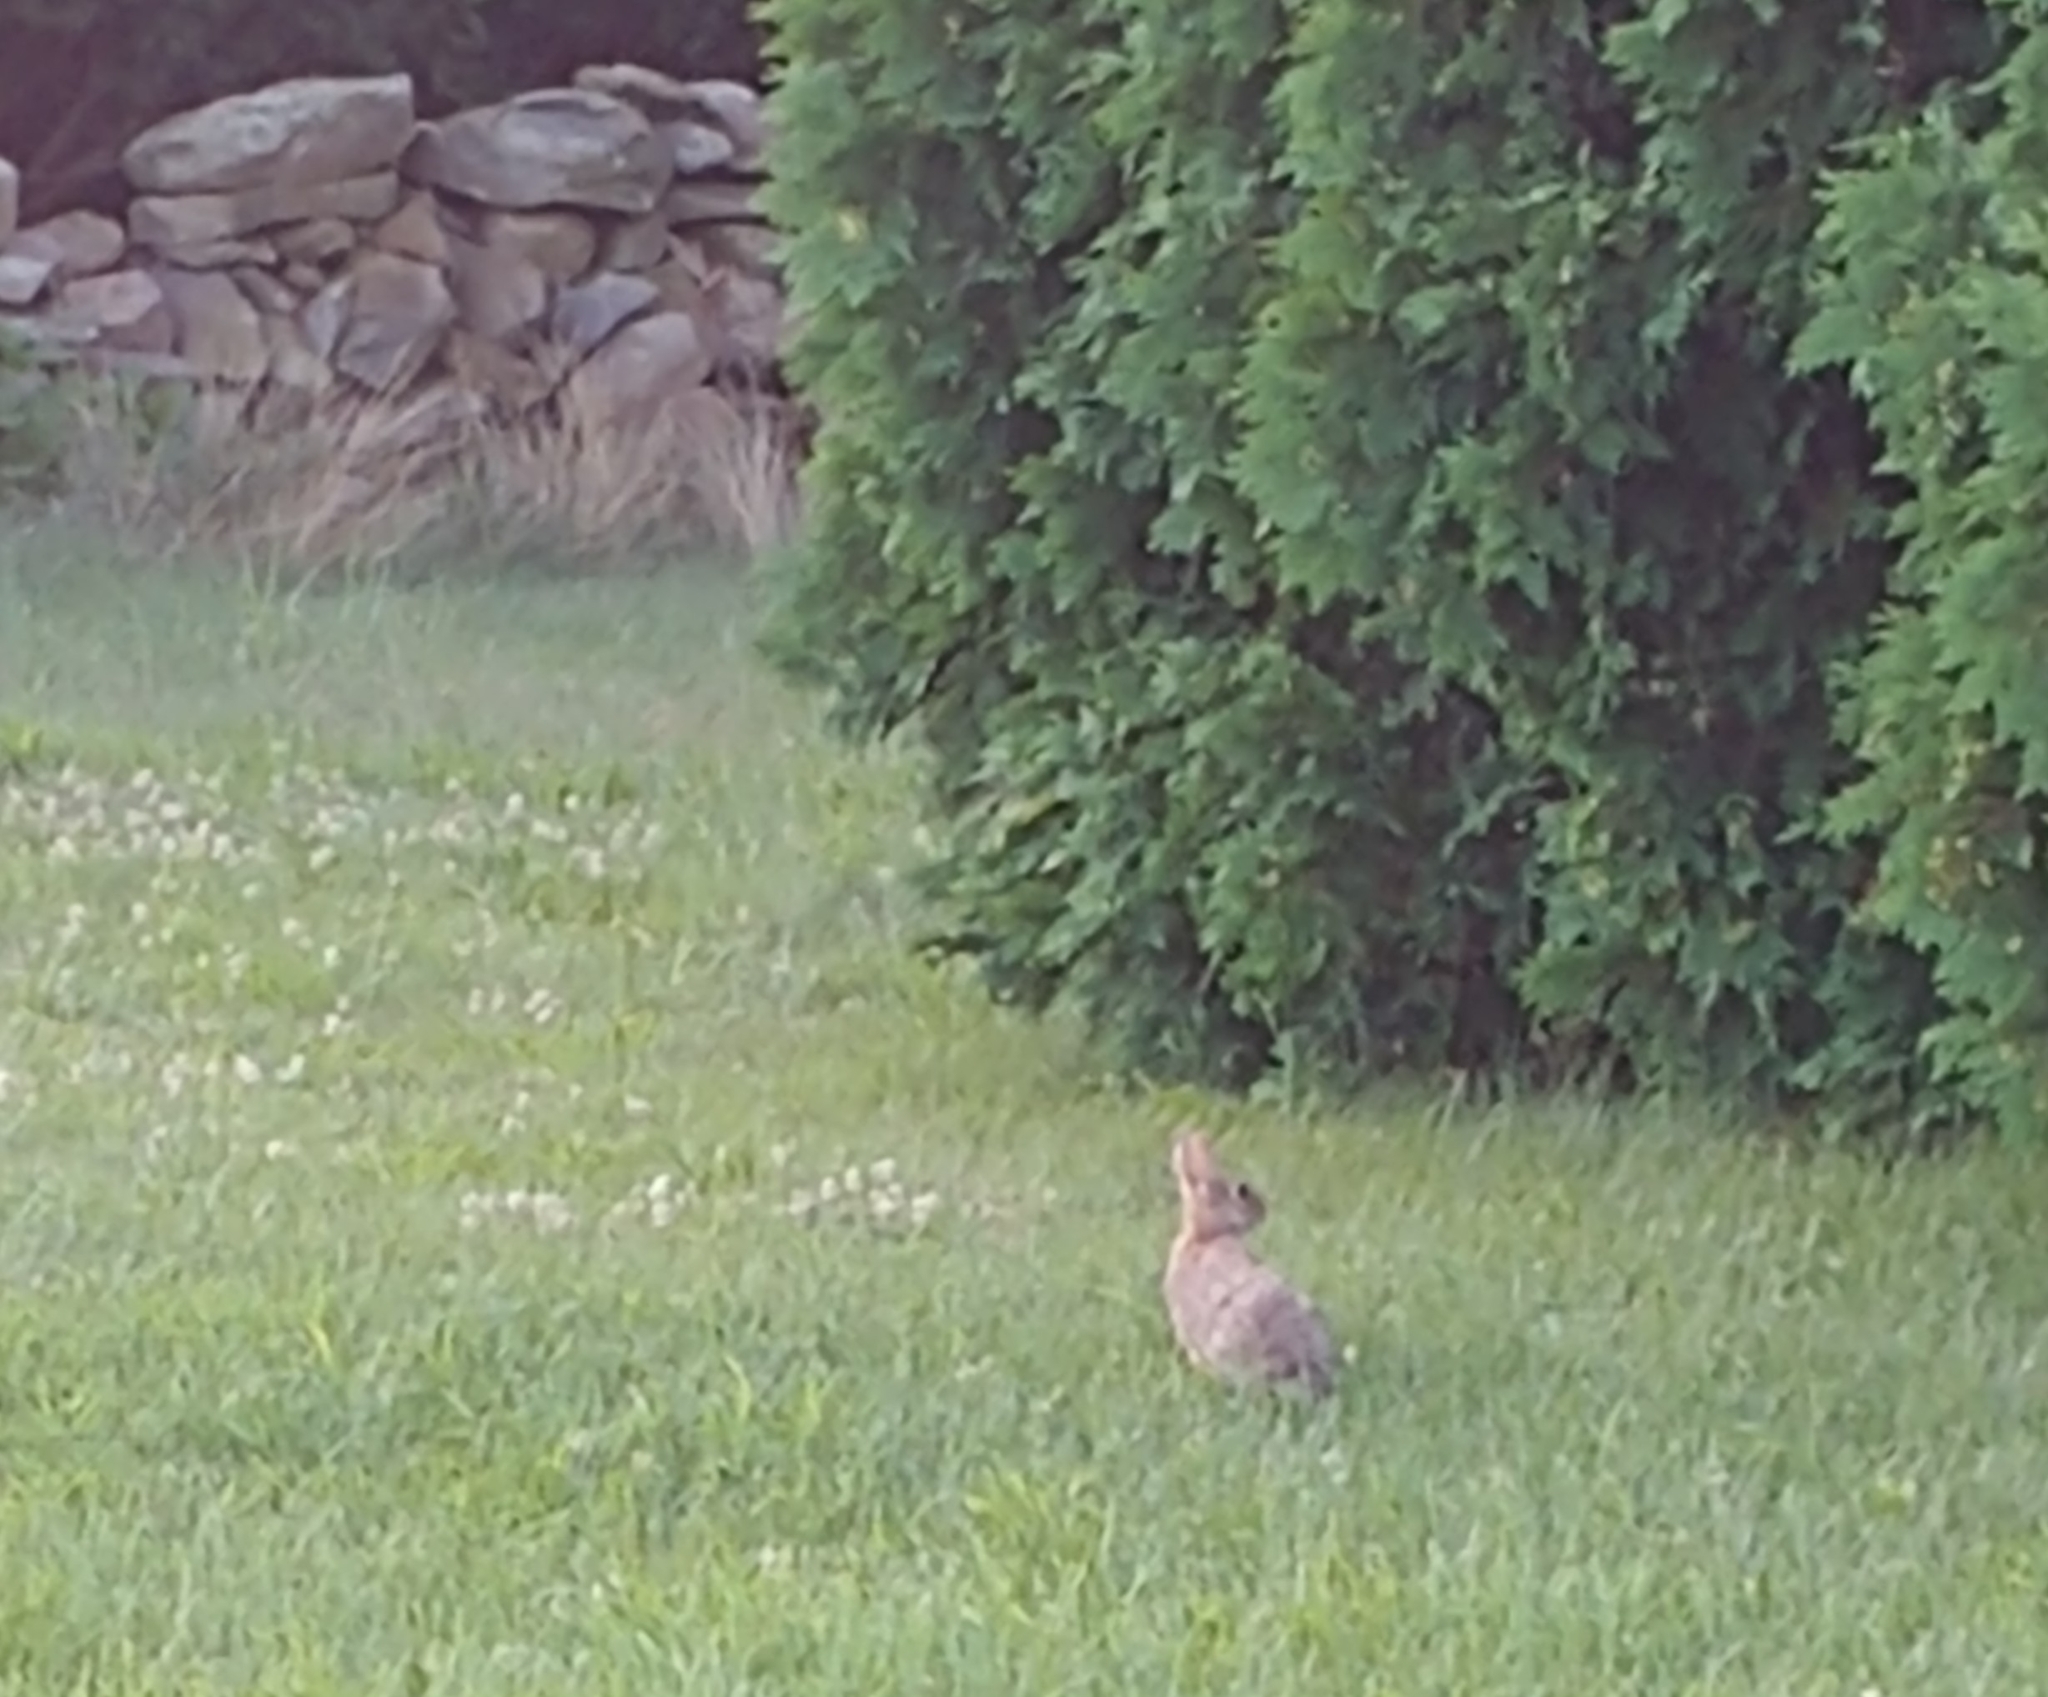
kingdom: Animalia
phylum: Chordata
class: Mammalia
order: Lagomorpha
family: Leporidae
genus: Sylvilagus
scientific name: Sylvilagus floridanus
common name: Eastern cottontail
